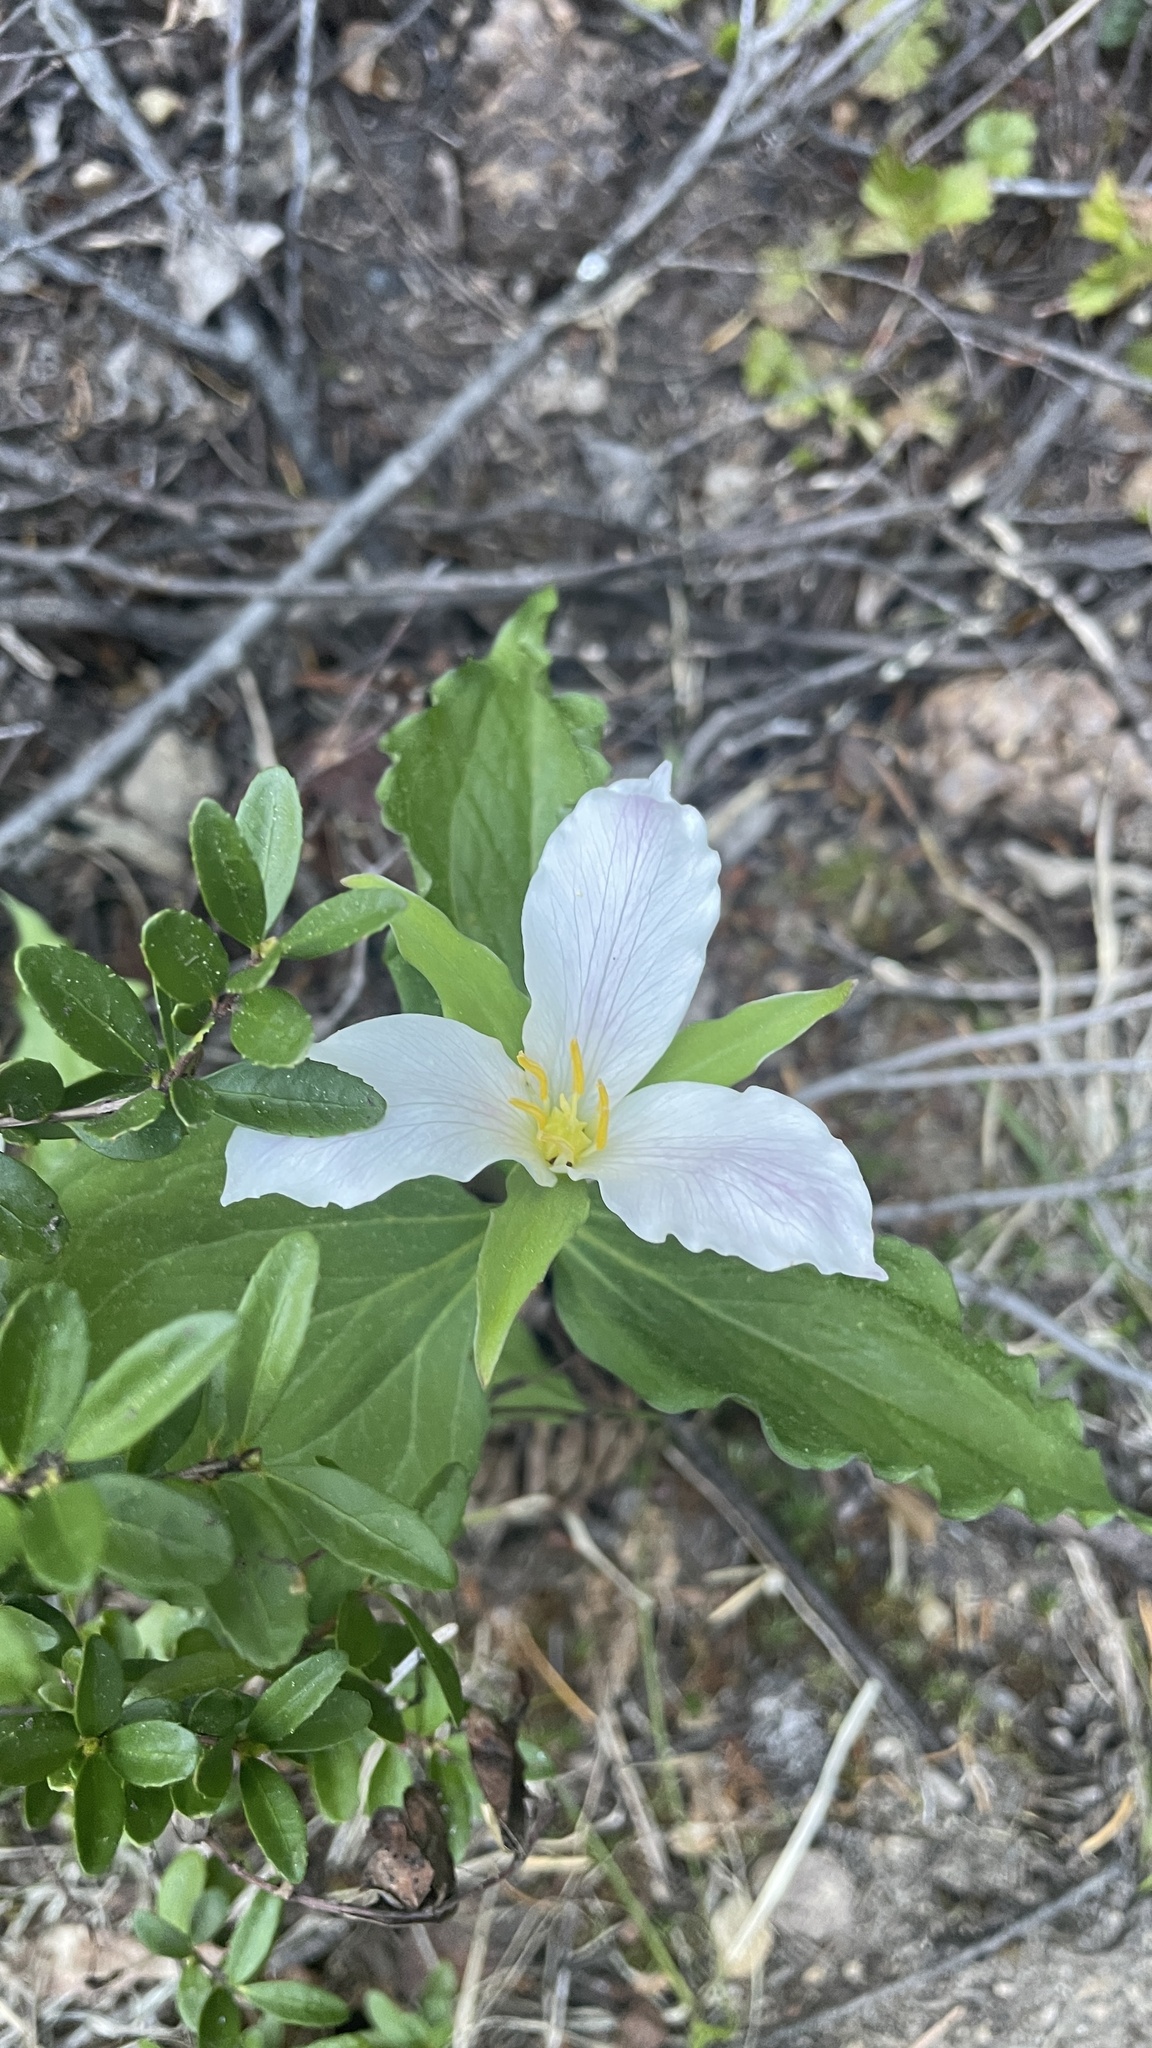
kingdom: Plantae
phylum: Tracheophyta
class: Liliopsida
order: Liliales
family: Melanthiaceae
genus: Trillium
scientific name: Trillium ovatum
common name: Pacific trillium
